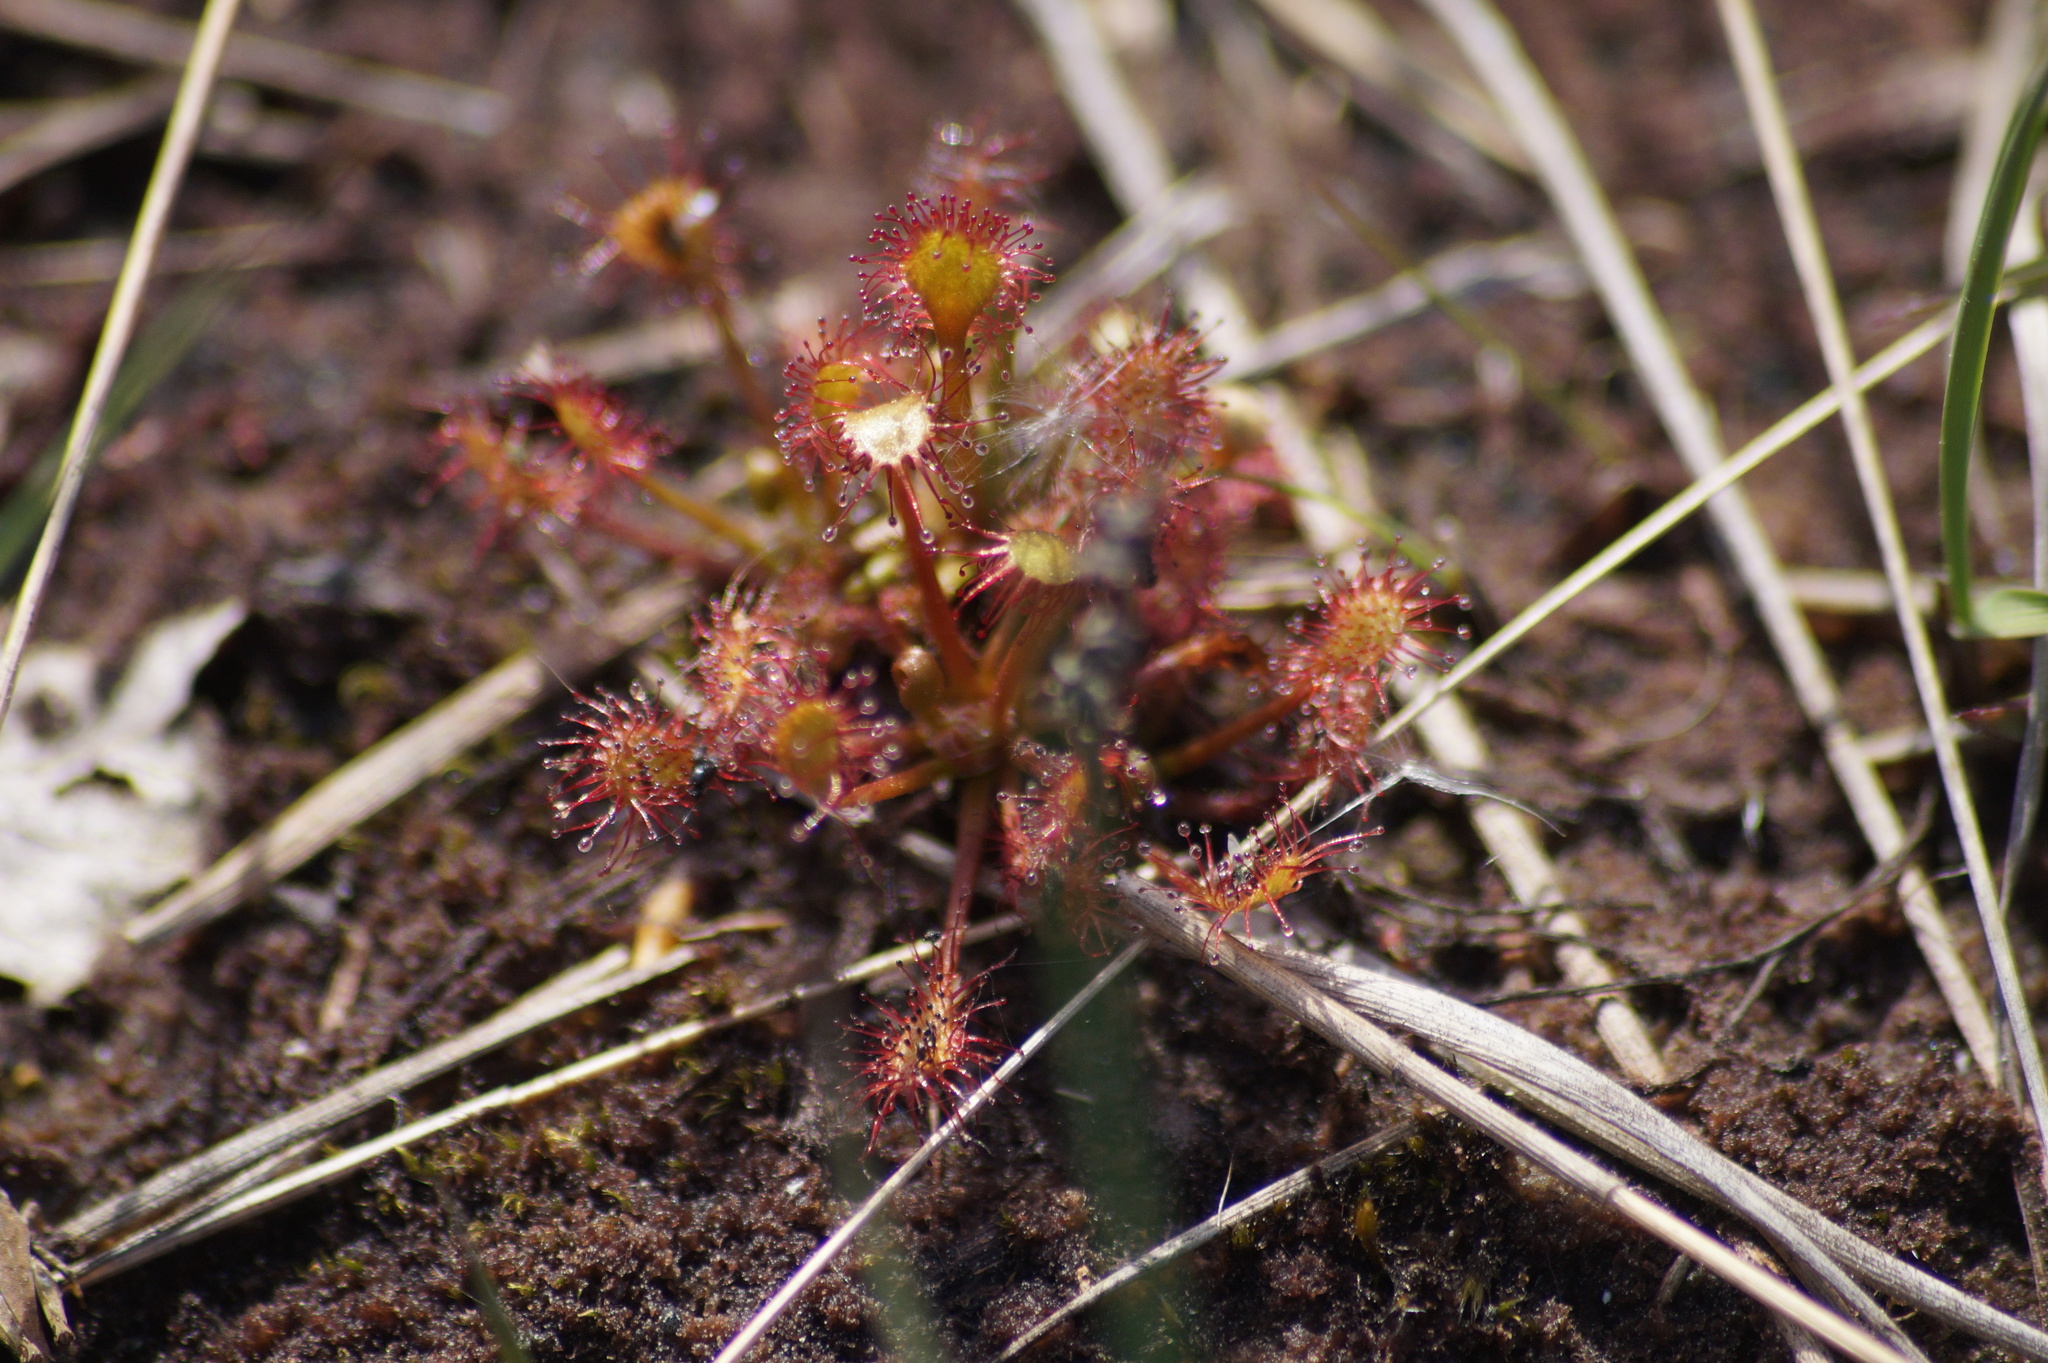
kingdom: Plantae
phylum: Tracheophyta
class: Magnoliopsida
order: Caryophyllales
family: Droseraceae
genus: Drosera
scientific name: Drosera intermedia
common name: Oblong-leaved sundew
